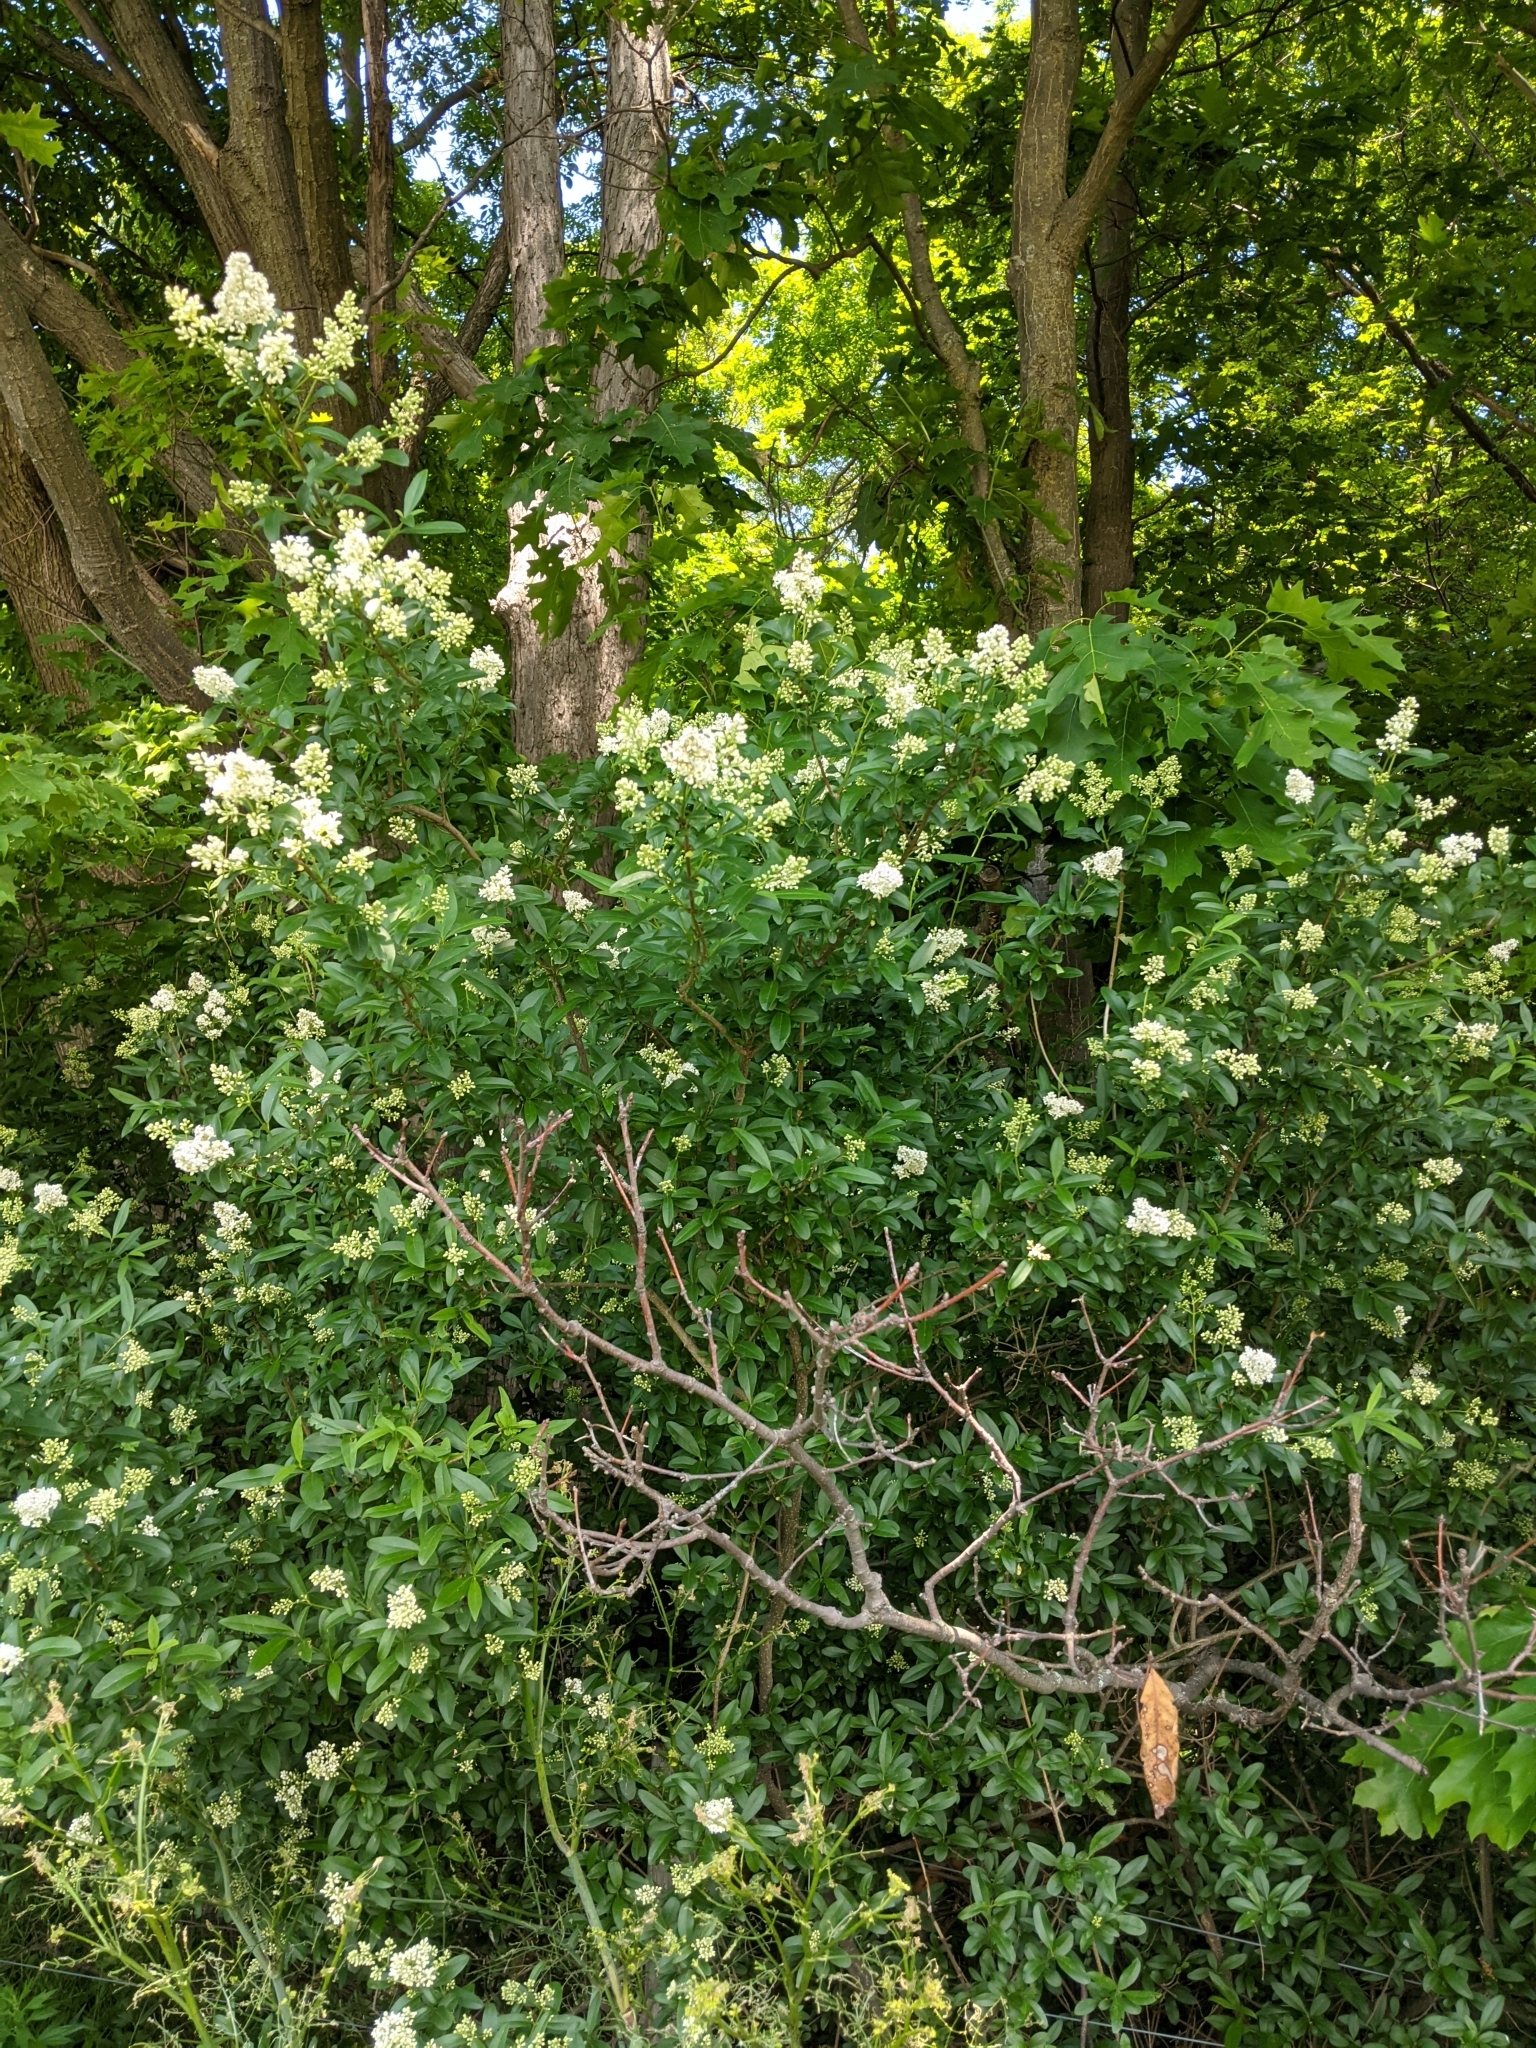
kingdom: Plantae
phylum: Tracheophyta
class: Magnoliopsida
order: Lamiales
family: Oleaceae
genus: Ligustrum
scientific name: Ligustrum vulgare
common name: Wild privet
